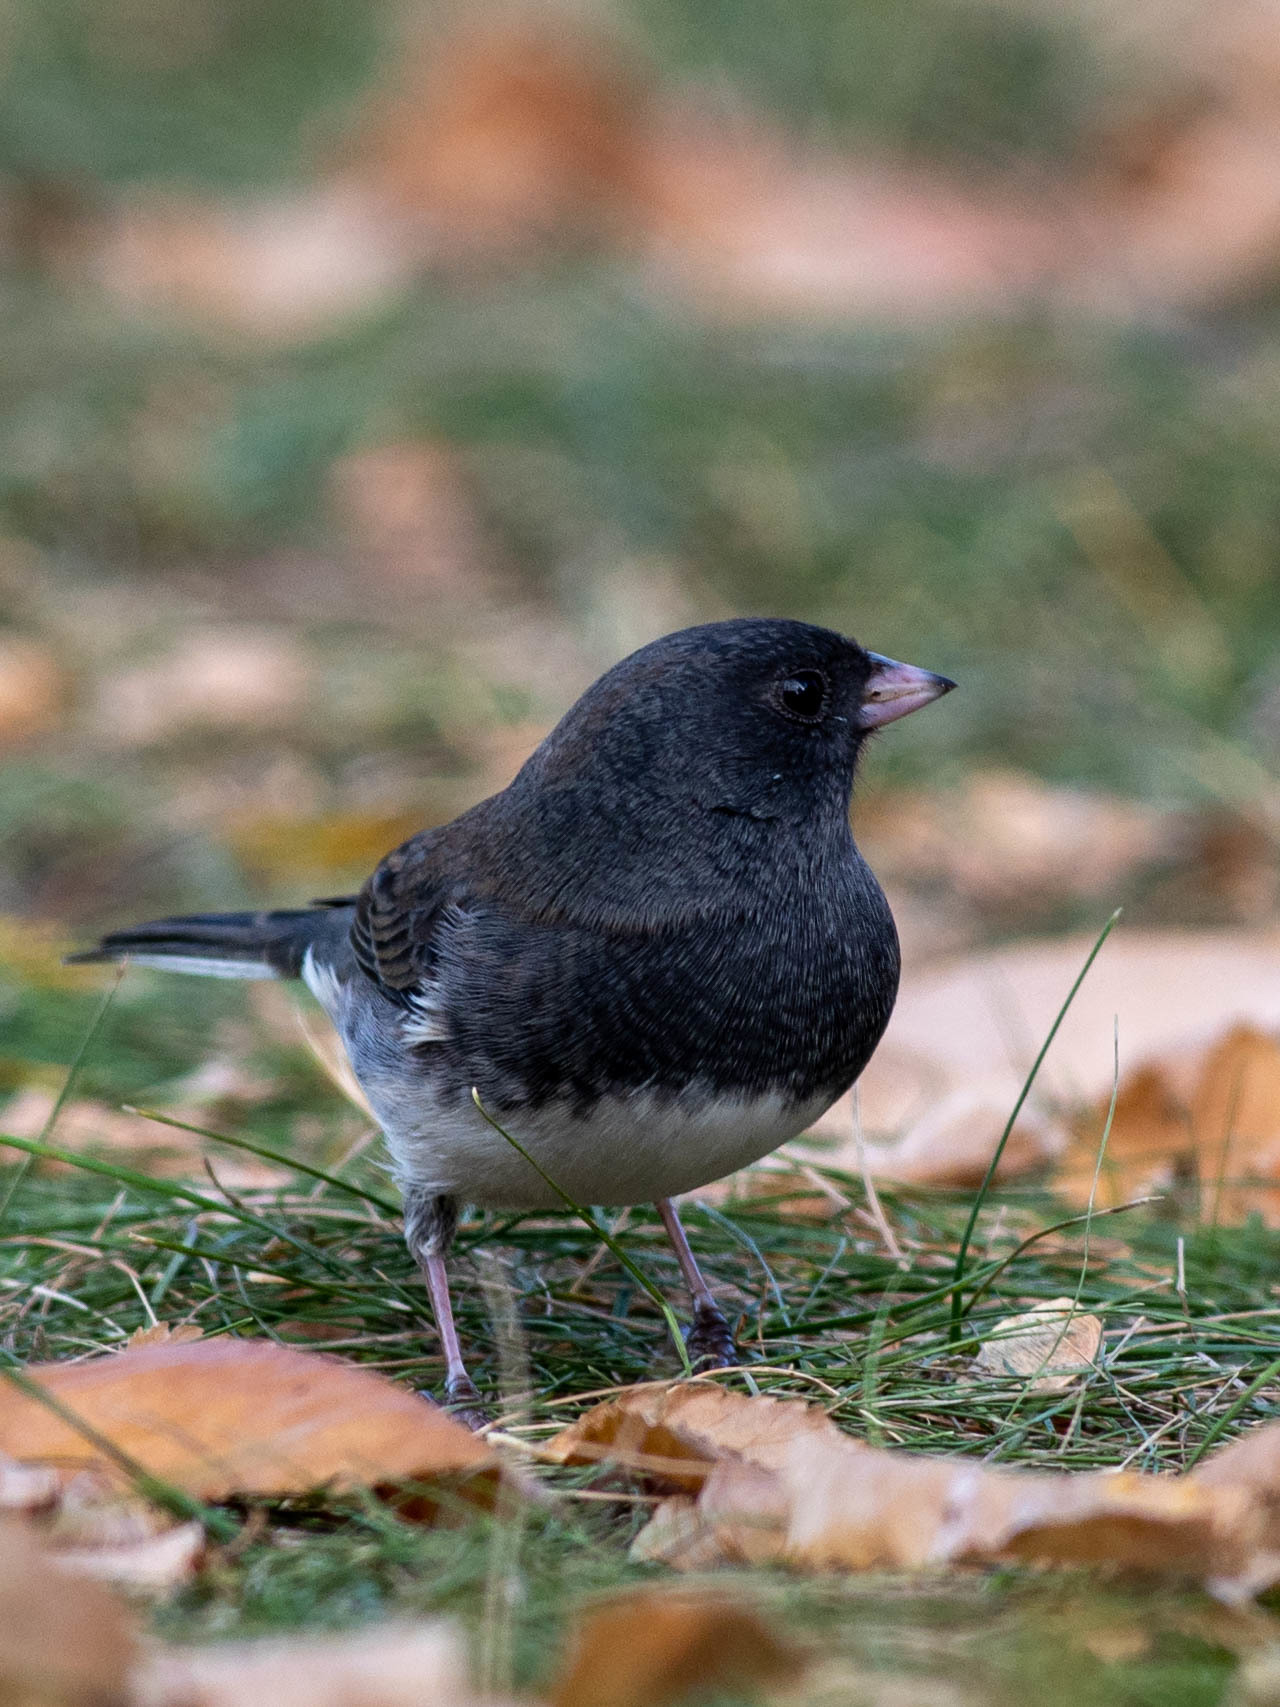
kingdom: Animalia
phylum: Chordata
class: Aves
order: Passeriformes
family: Passerellidae
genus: Junco
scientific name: Junco hyemalis
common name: Dark-eyed junco
